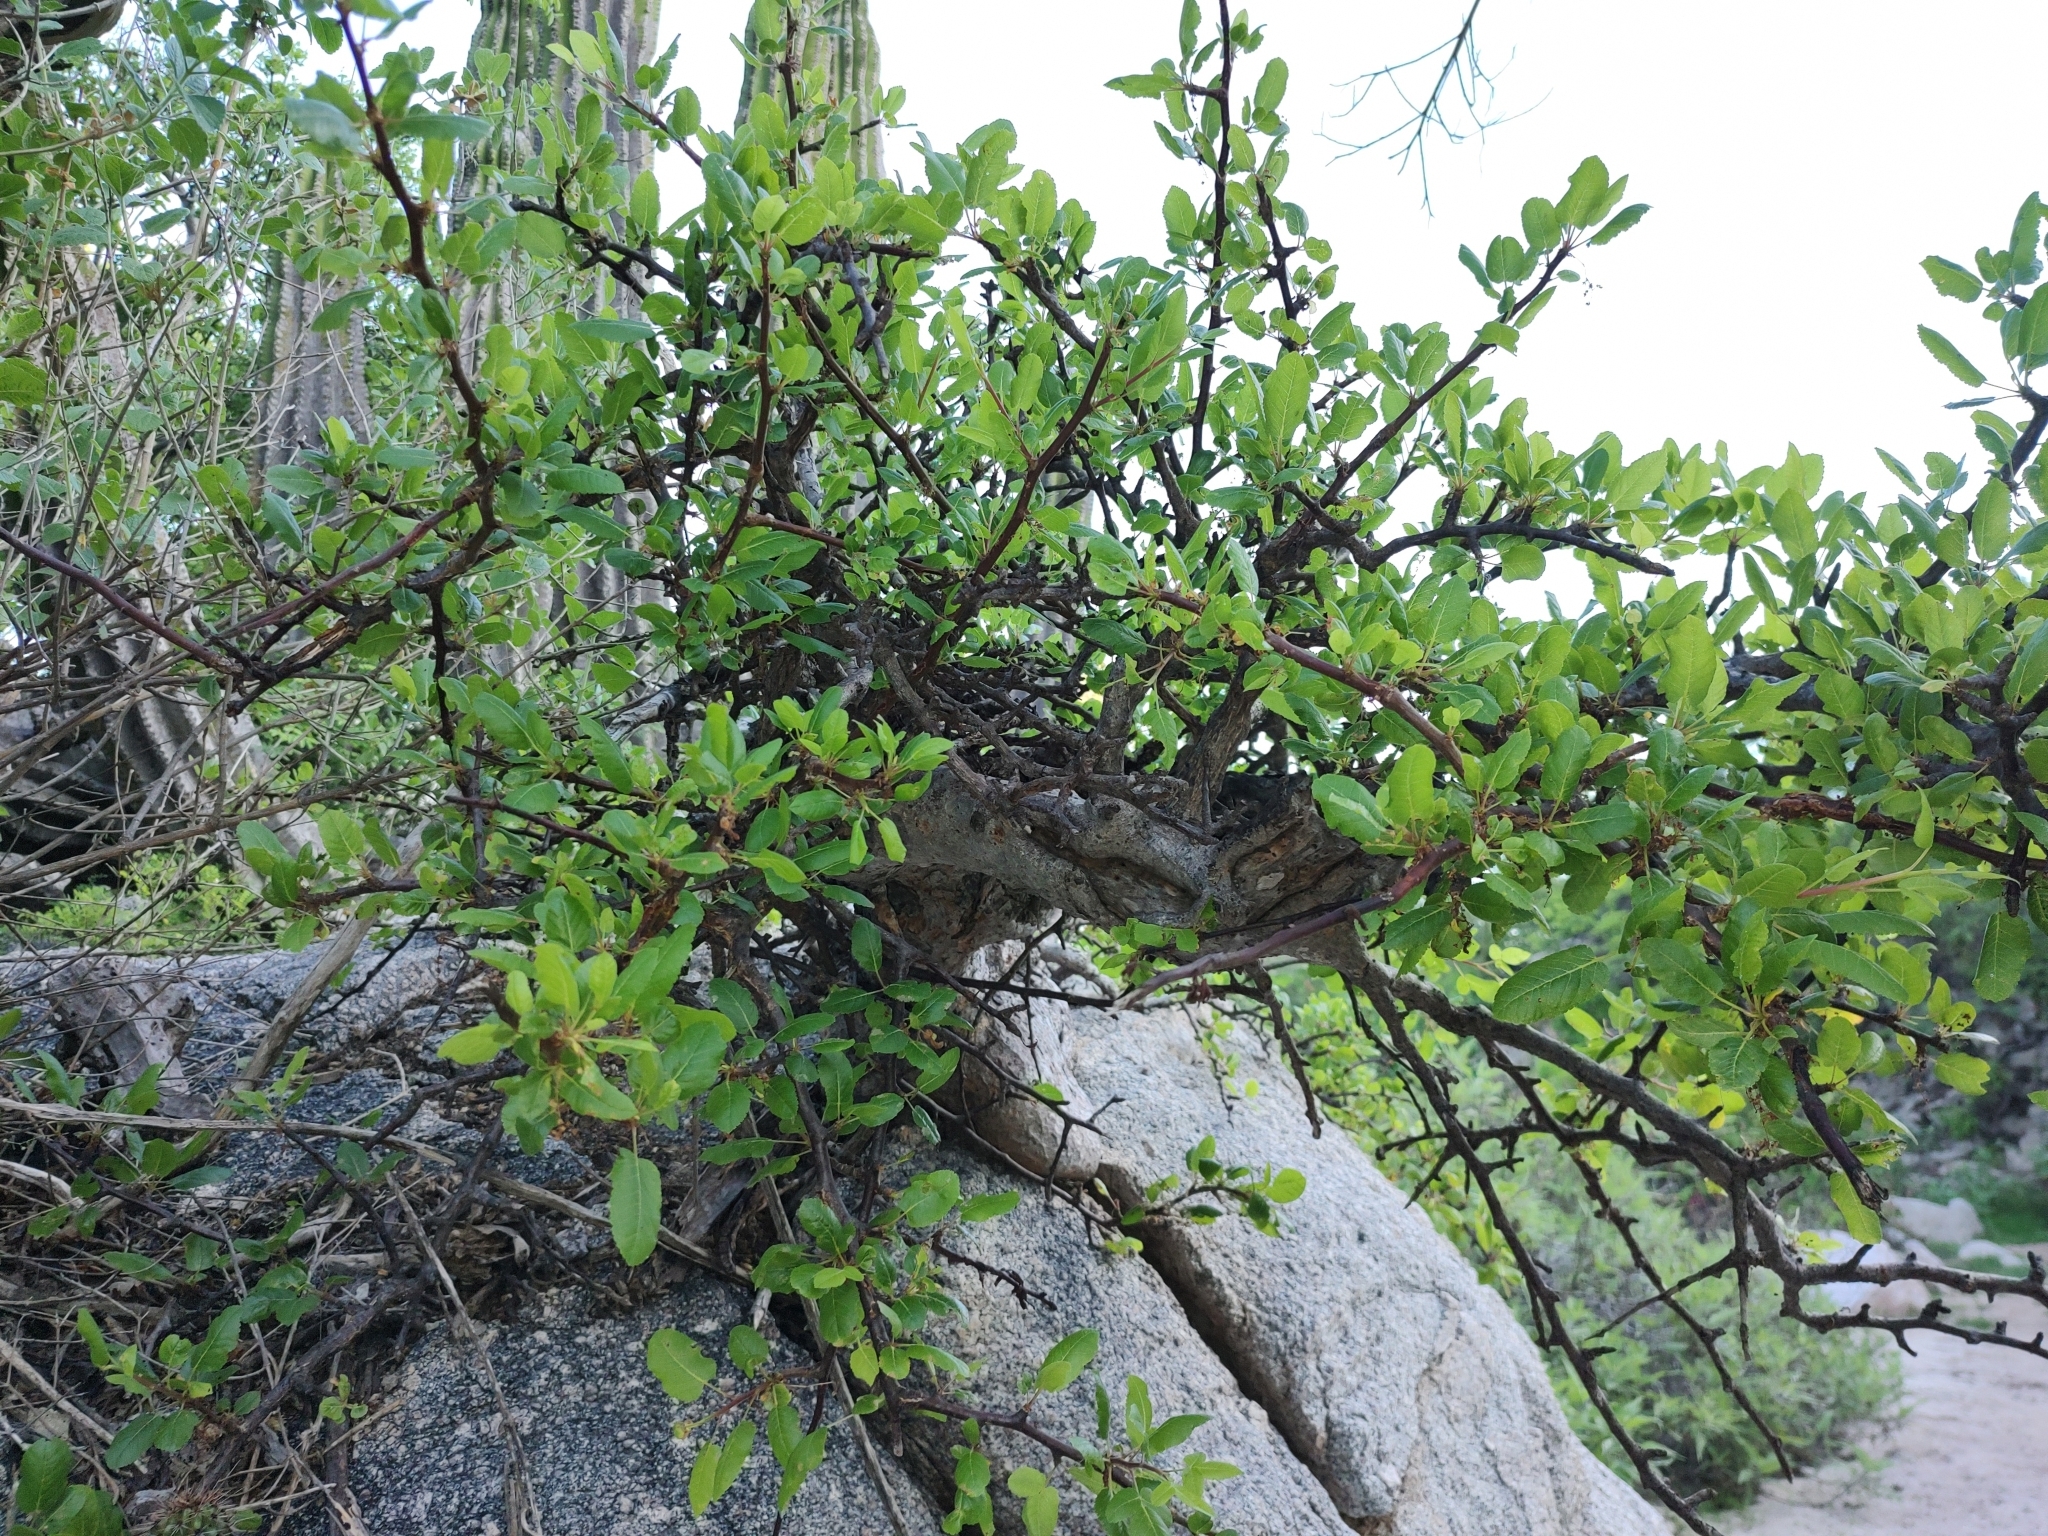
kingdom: Plantae
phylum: Tracheophyta
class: Magnoliopsida
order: Sapindales
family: Burseraceae
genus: Bursera
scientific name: Bursera rupicola
